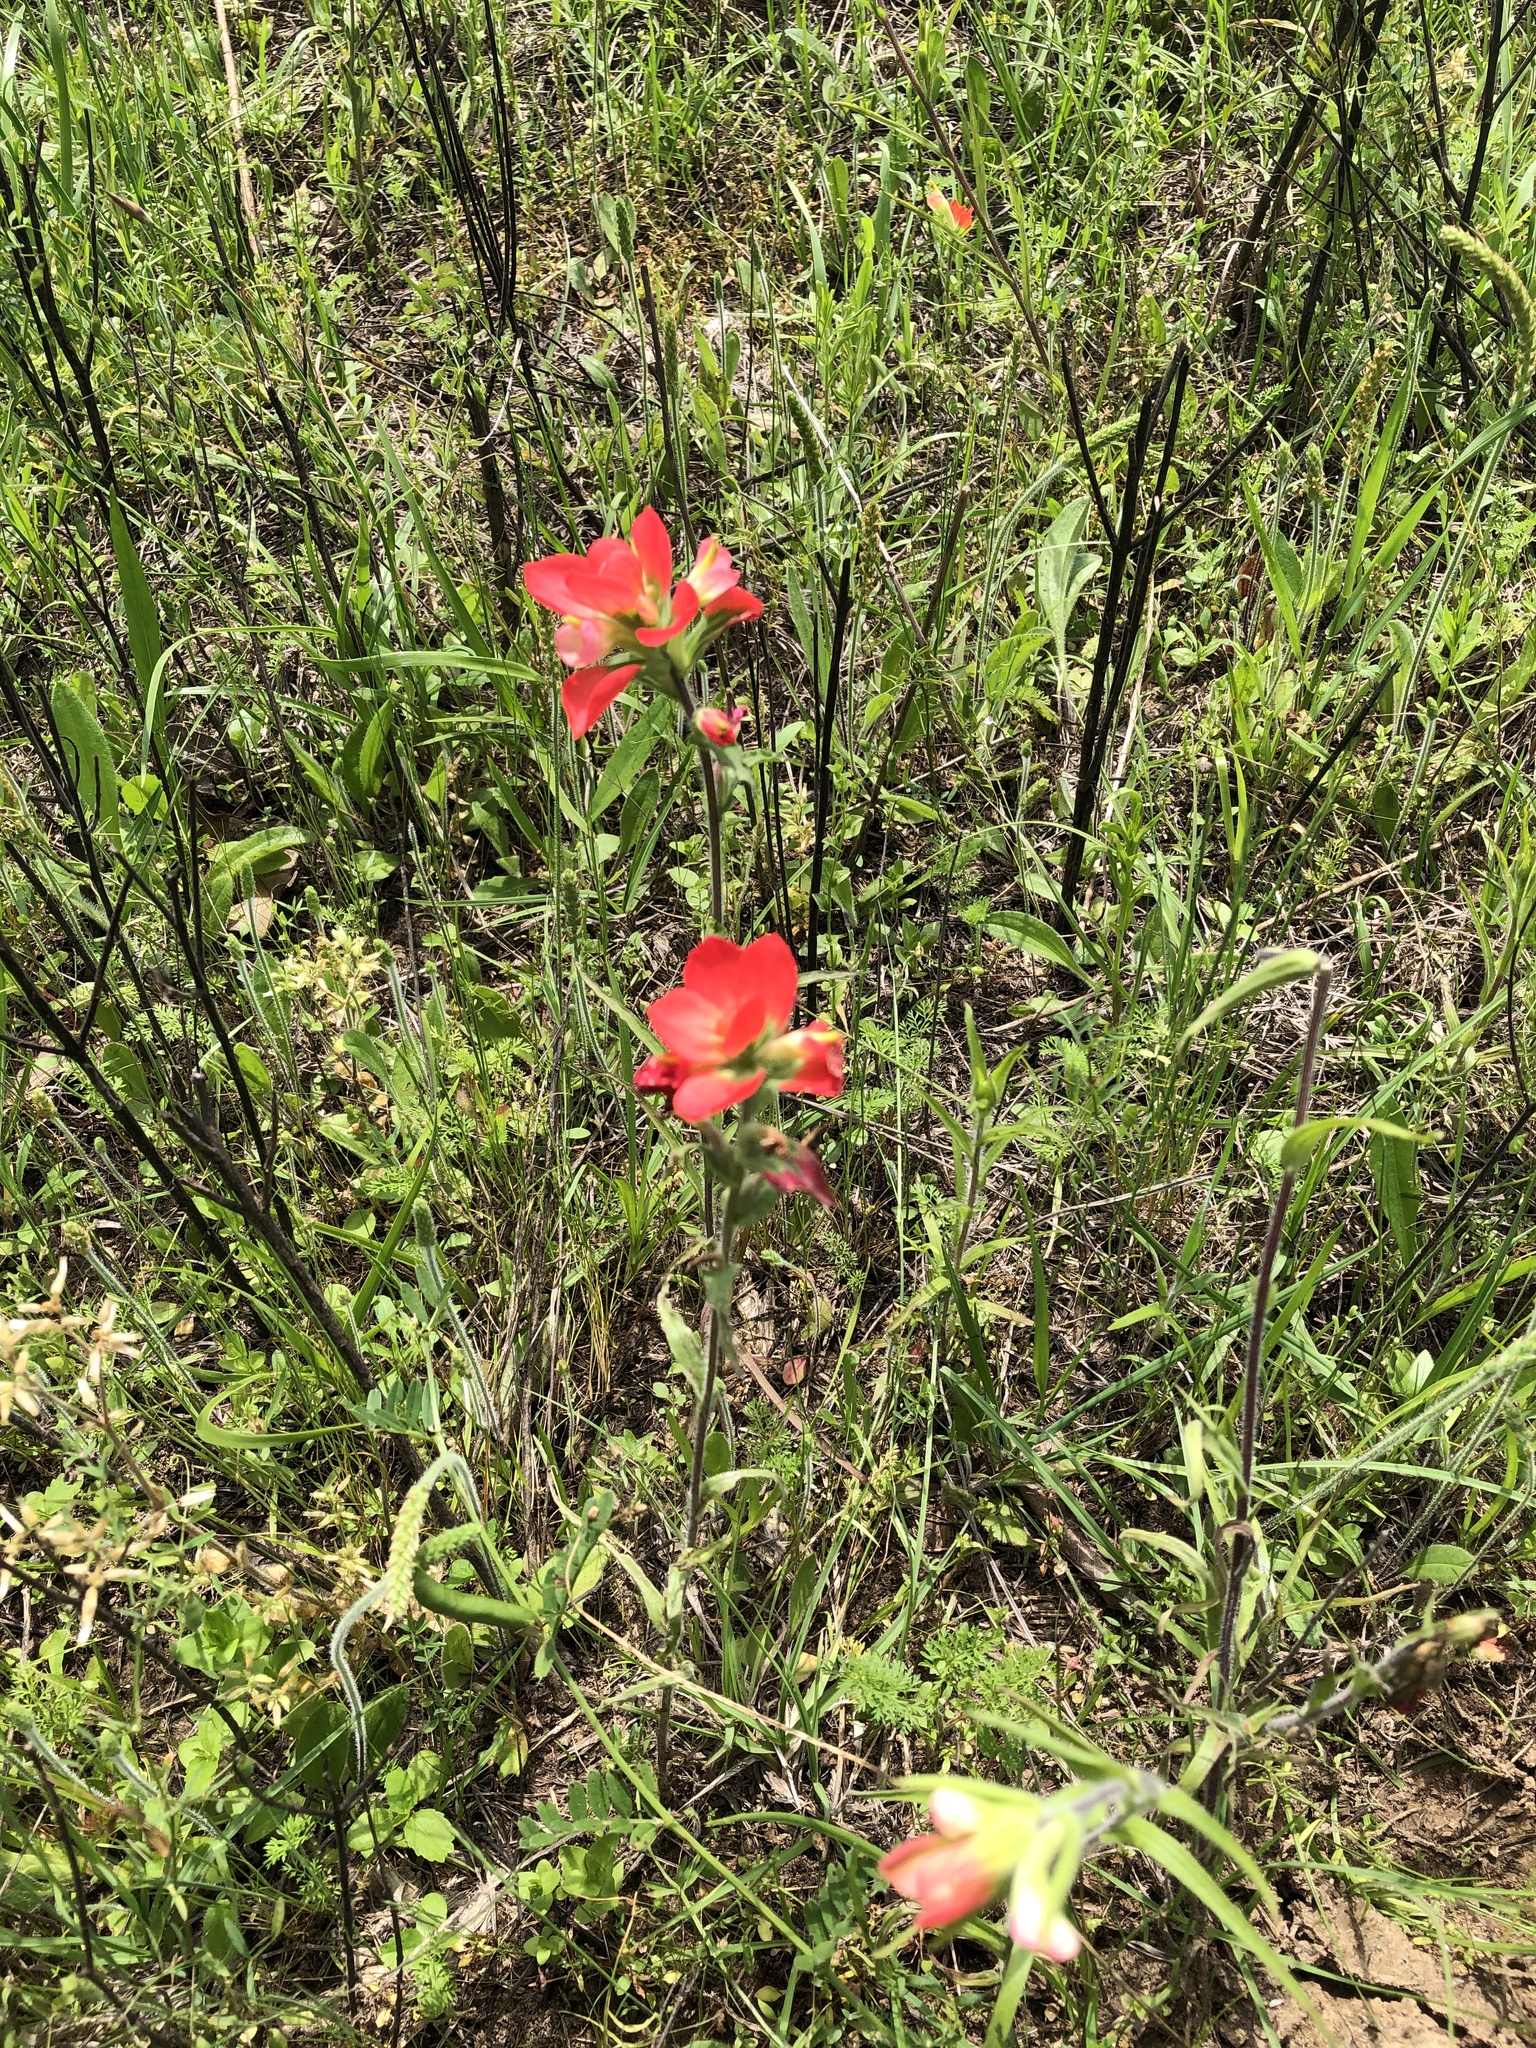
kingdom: Plantae
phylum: Tracheophyta
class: Magnoliopsida
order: Lamiales
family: Orobanchaceae
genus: Castilleja
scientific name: Castilleja indivisa
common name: Texas paintbrush
